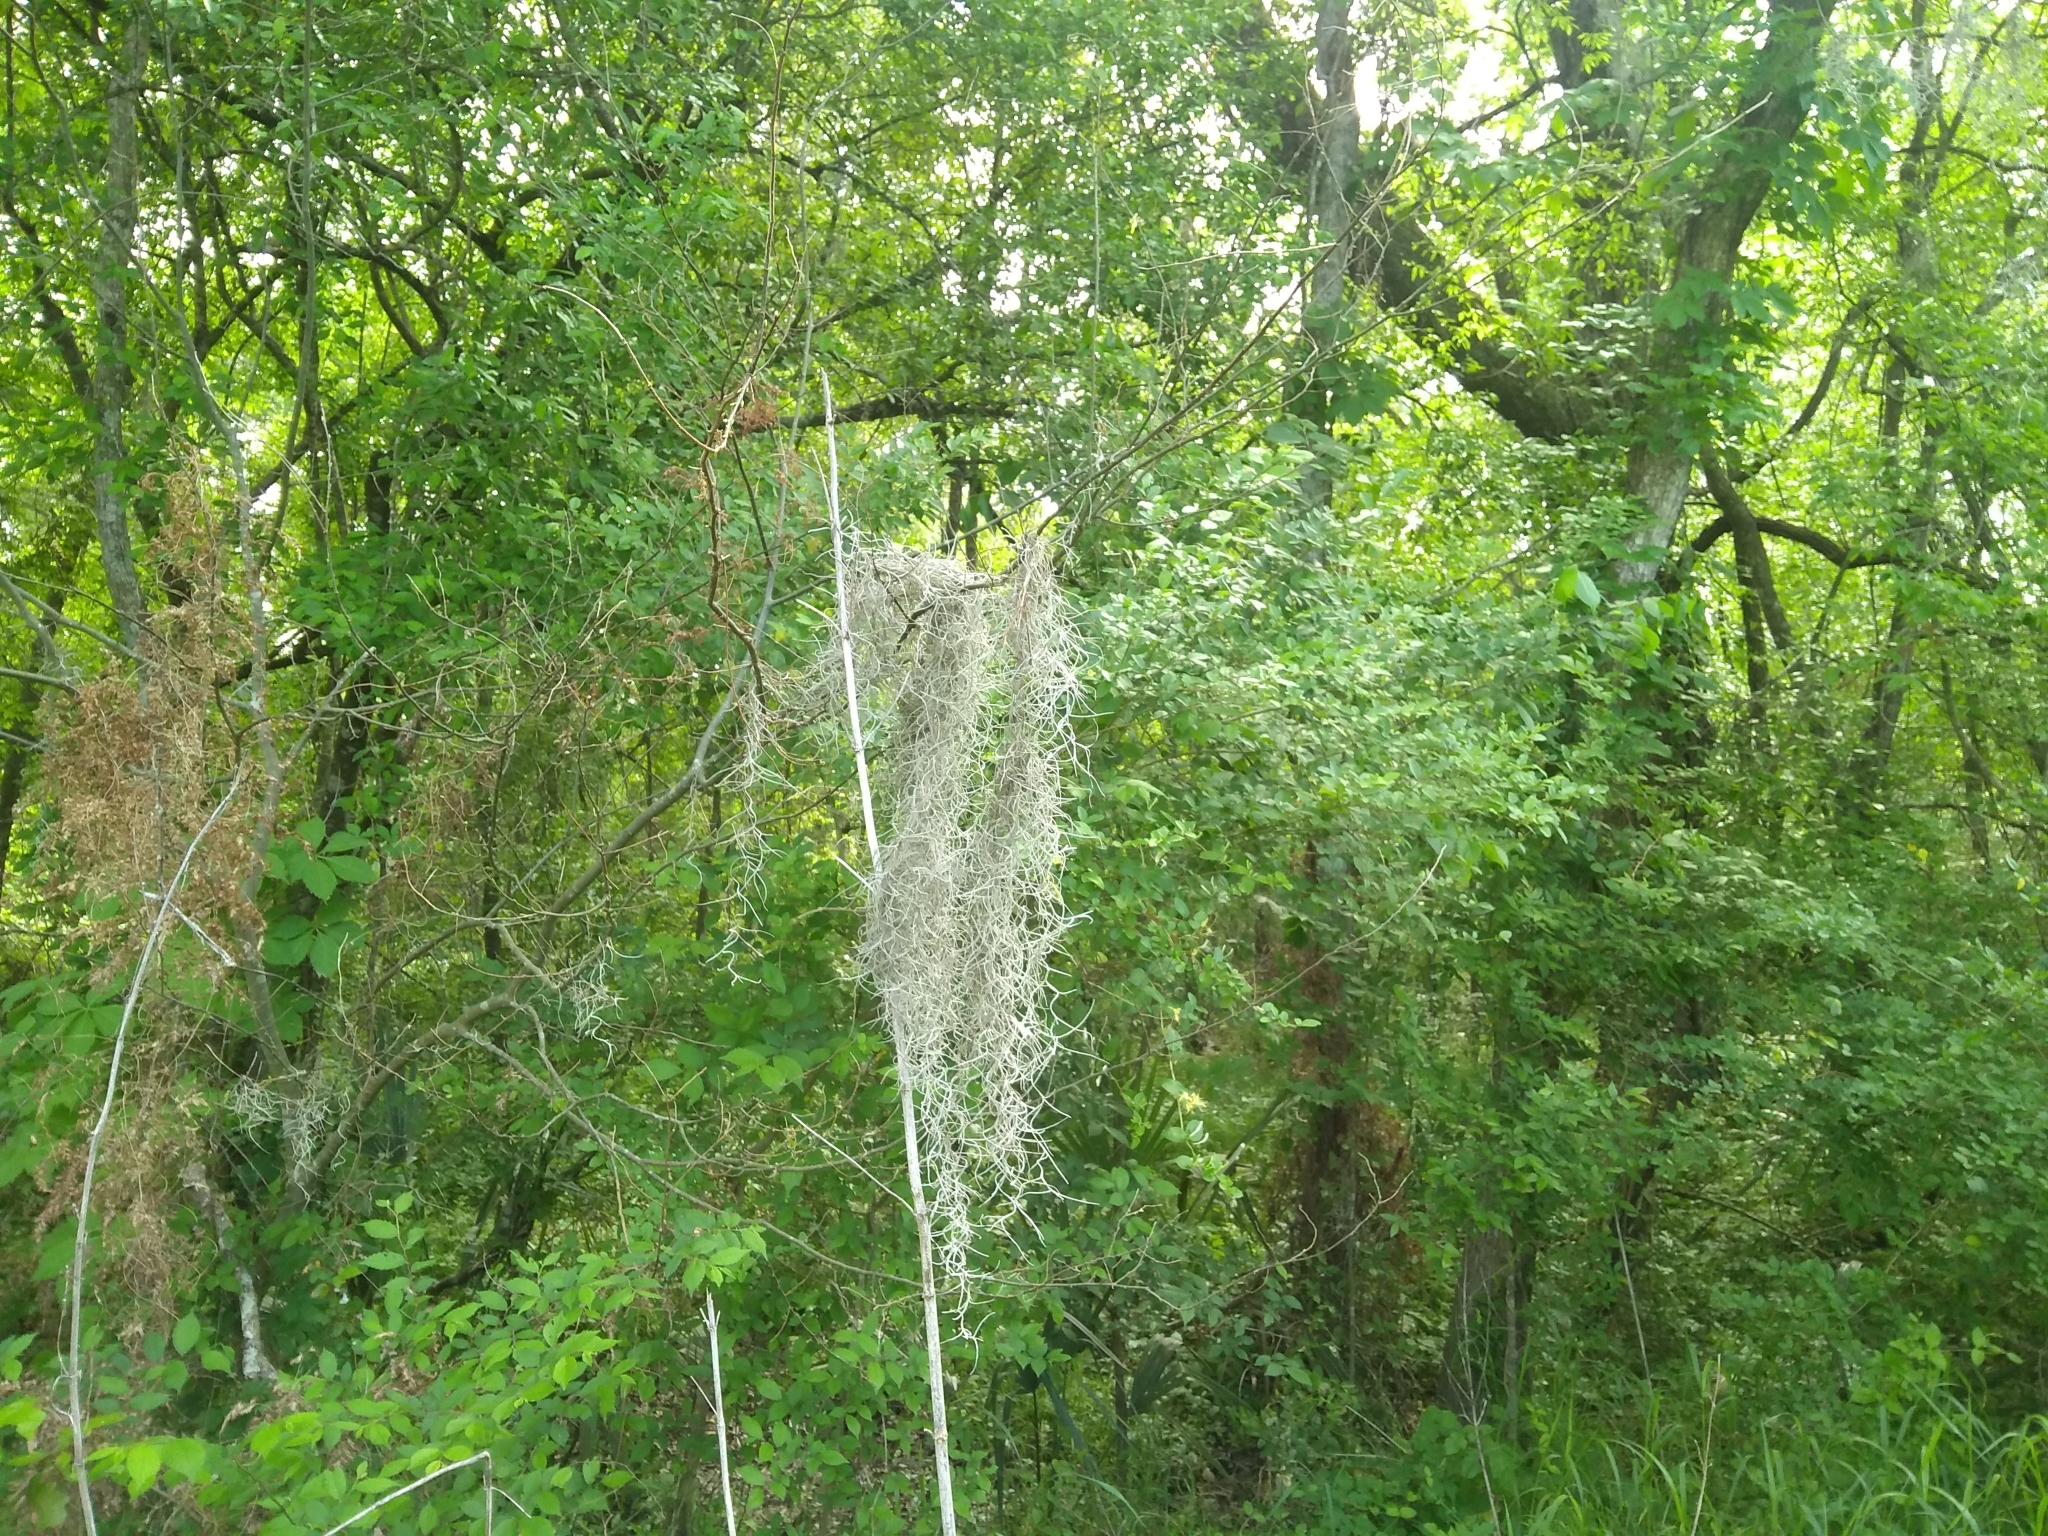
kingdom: Plantae
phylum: Tracheophyta
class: Liliopsida
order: Poales
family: Bromeliaceae
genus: Tillandsia
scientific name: Tillandsia usneoides
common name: Spanish moss
